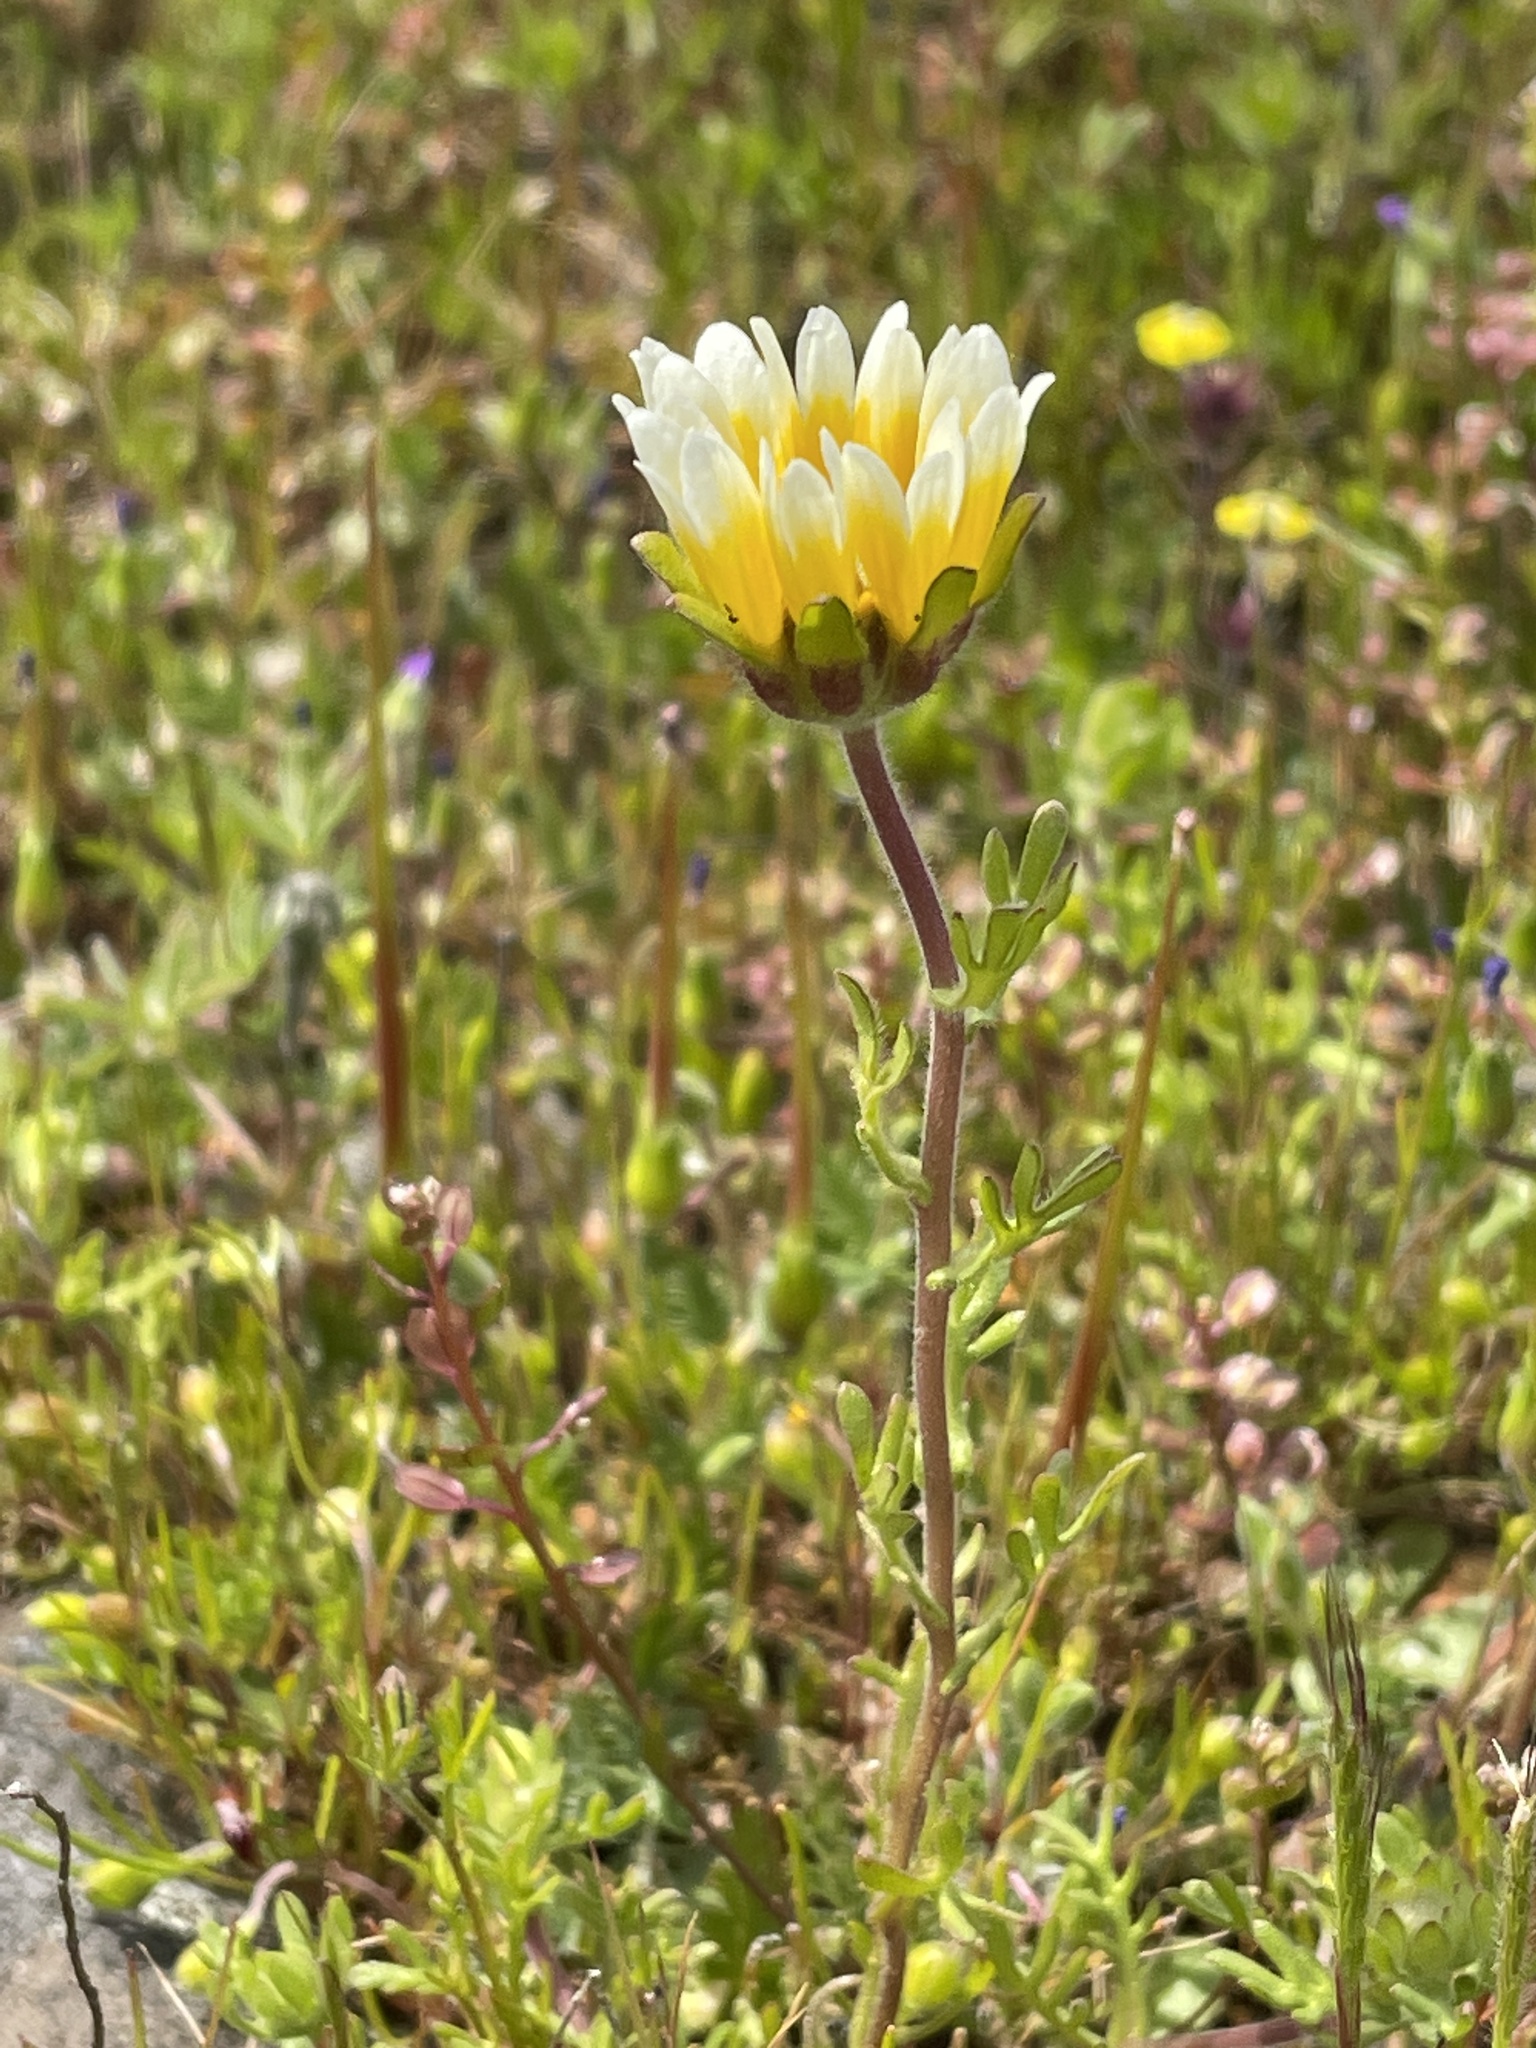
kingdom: Plantae
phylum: Tracheophyta
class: Magnoliopsida
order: Asterales
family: Asteraceae
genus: Layia
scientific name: Layia fremontii
